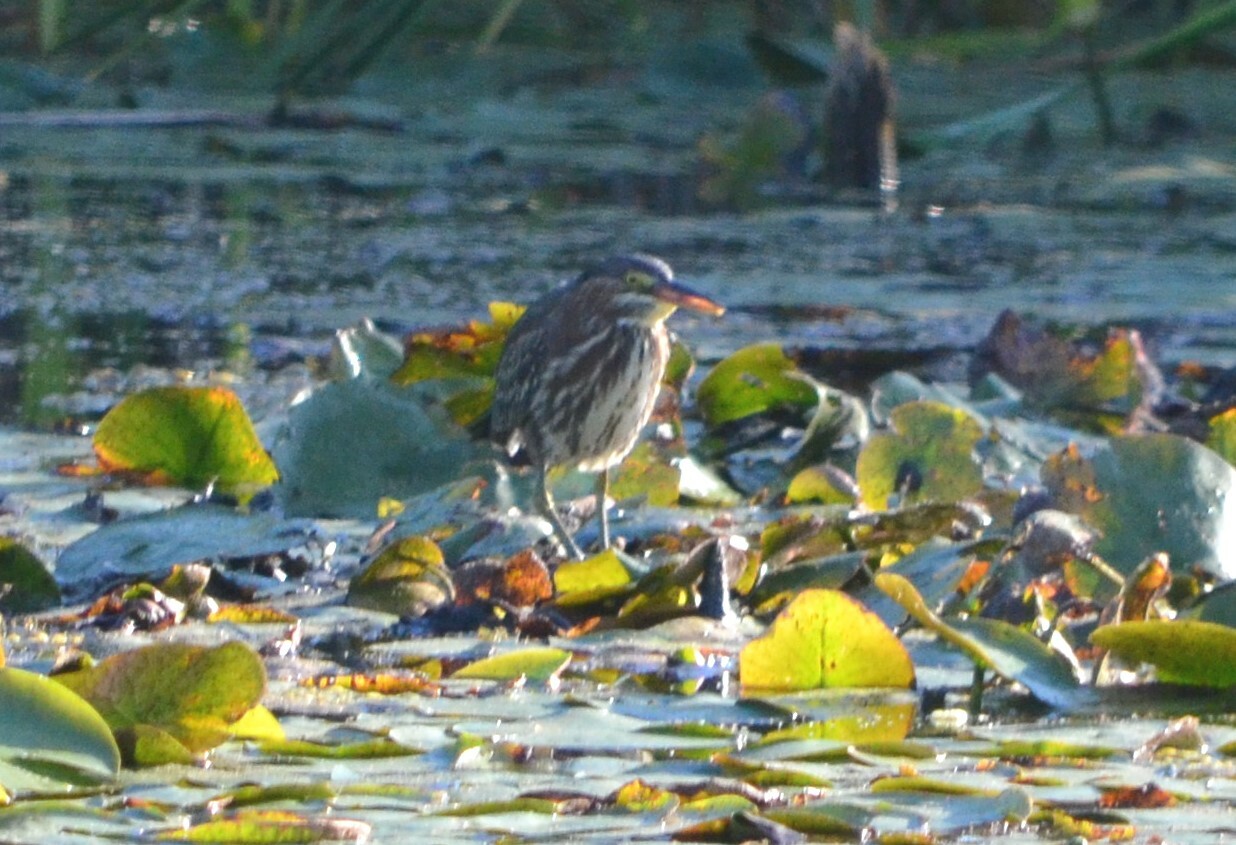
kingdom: Animalia
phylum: Chordata
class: Aves
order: Pelecaniformes
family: Ardeidae
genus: Butorides
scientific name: Butorides virescens
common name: Green heron
